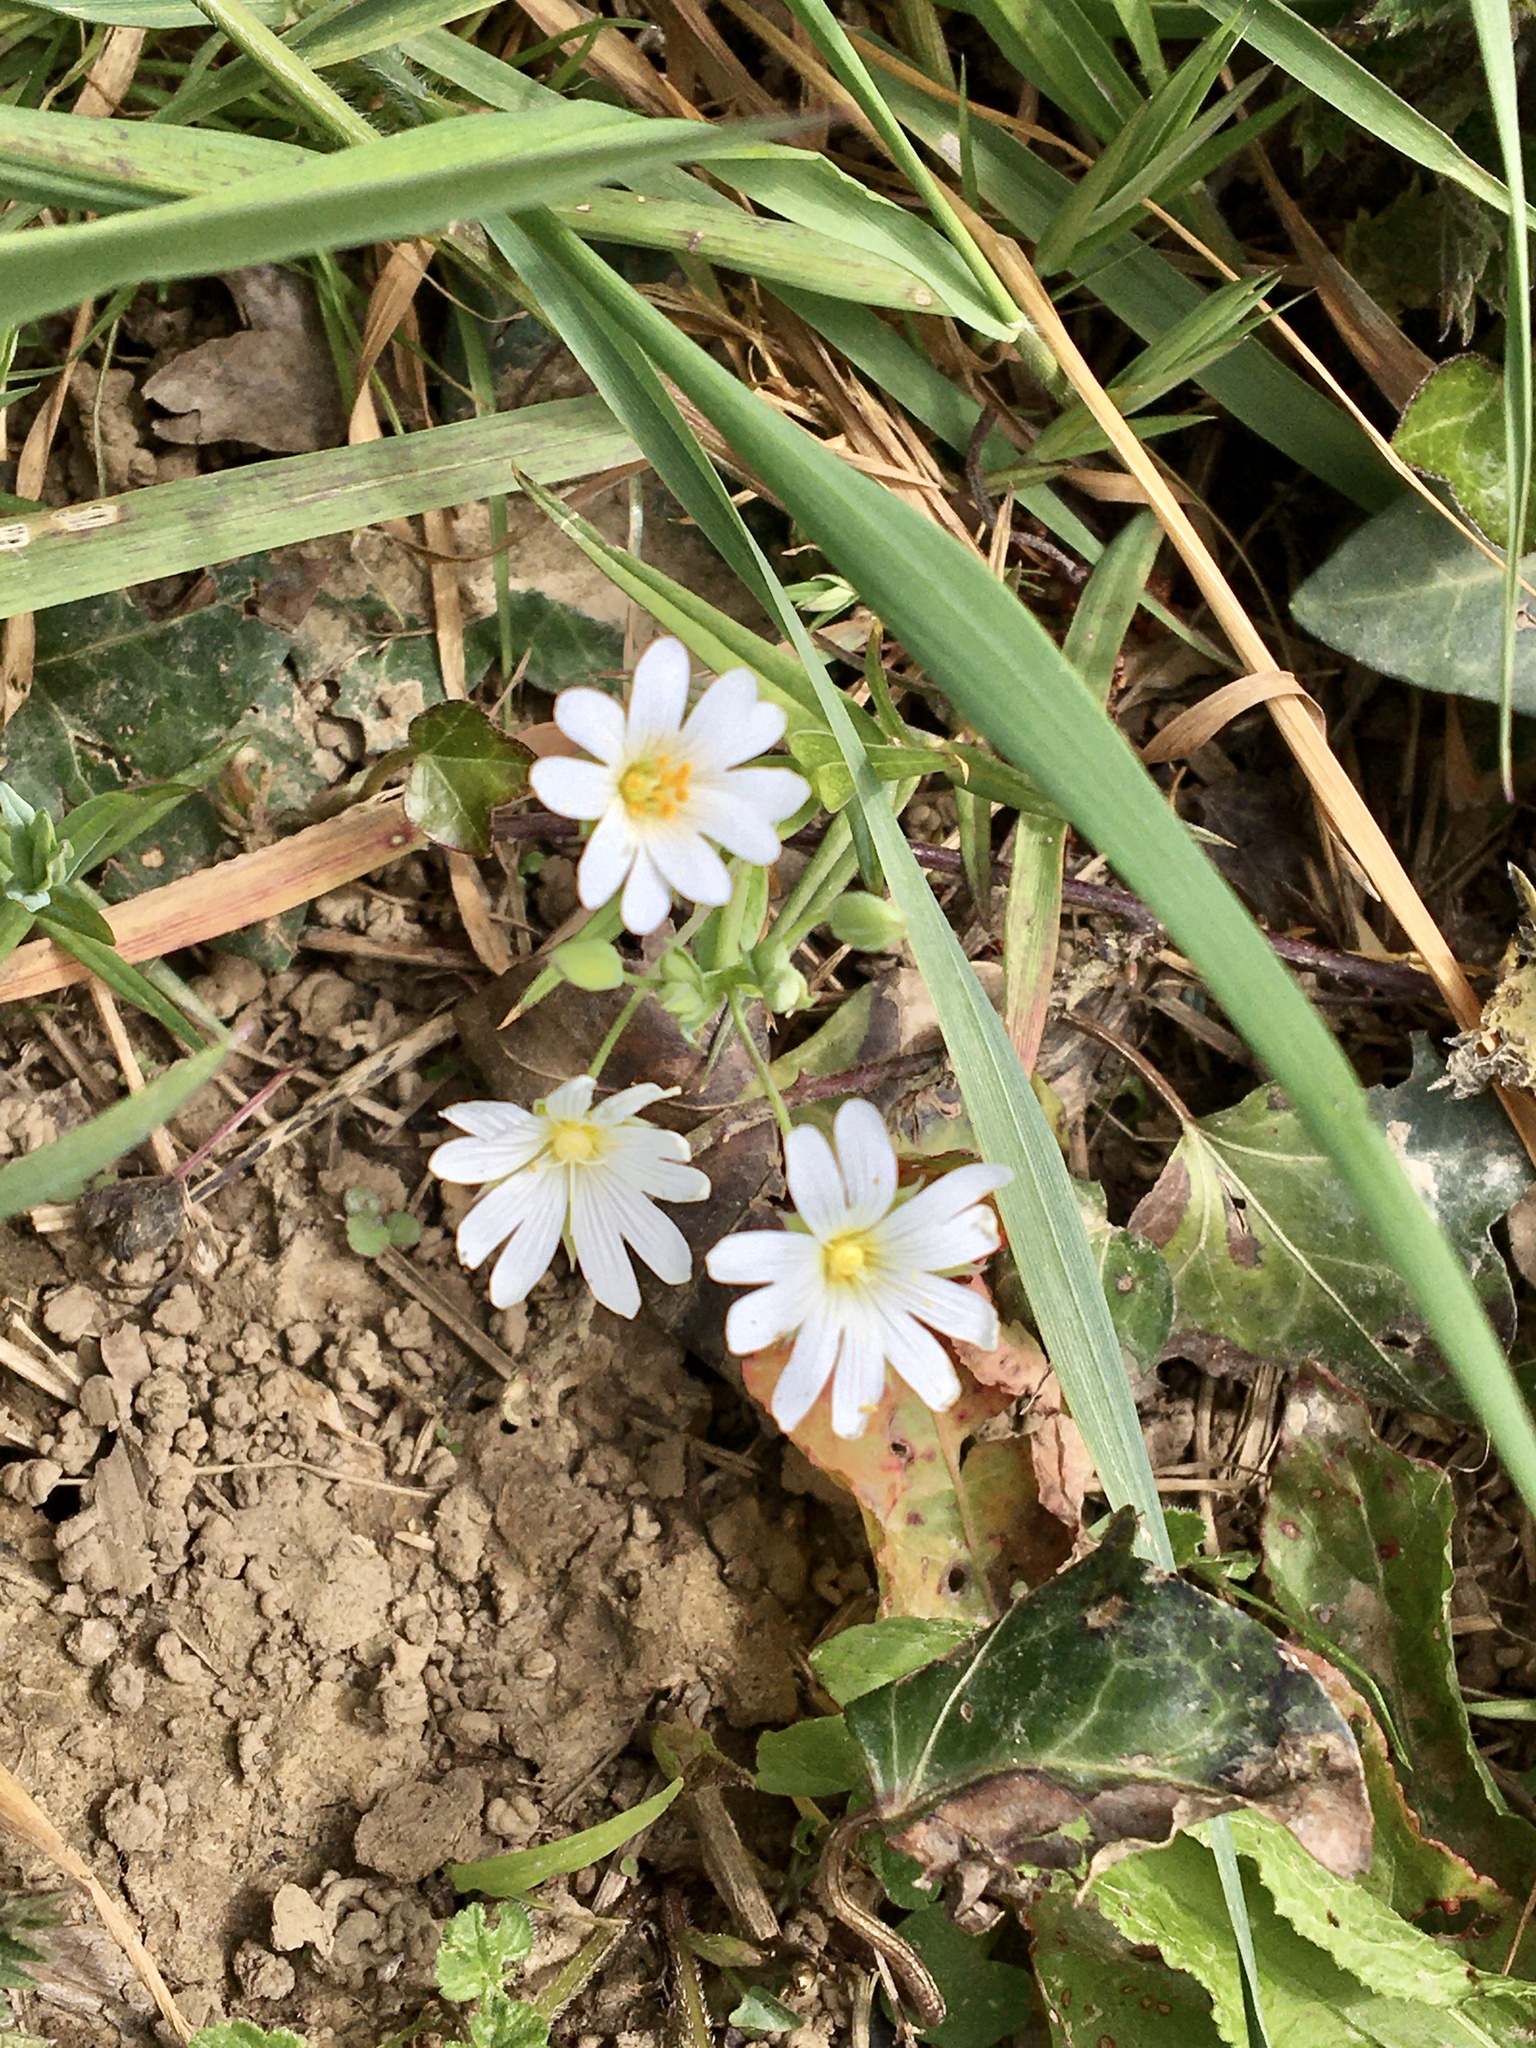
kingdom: Plantae
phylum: Tracheophyta
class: Magnoliopsida
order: Caryophyllales
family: Caryophyllaceae
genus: Rabelera
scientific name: Rabelera holostea
